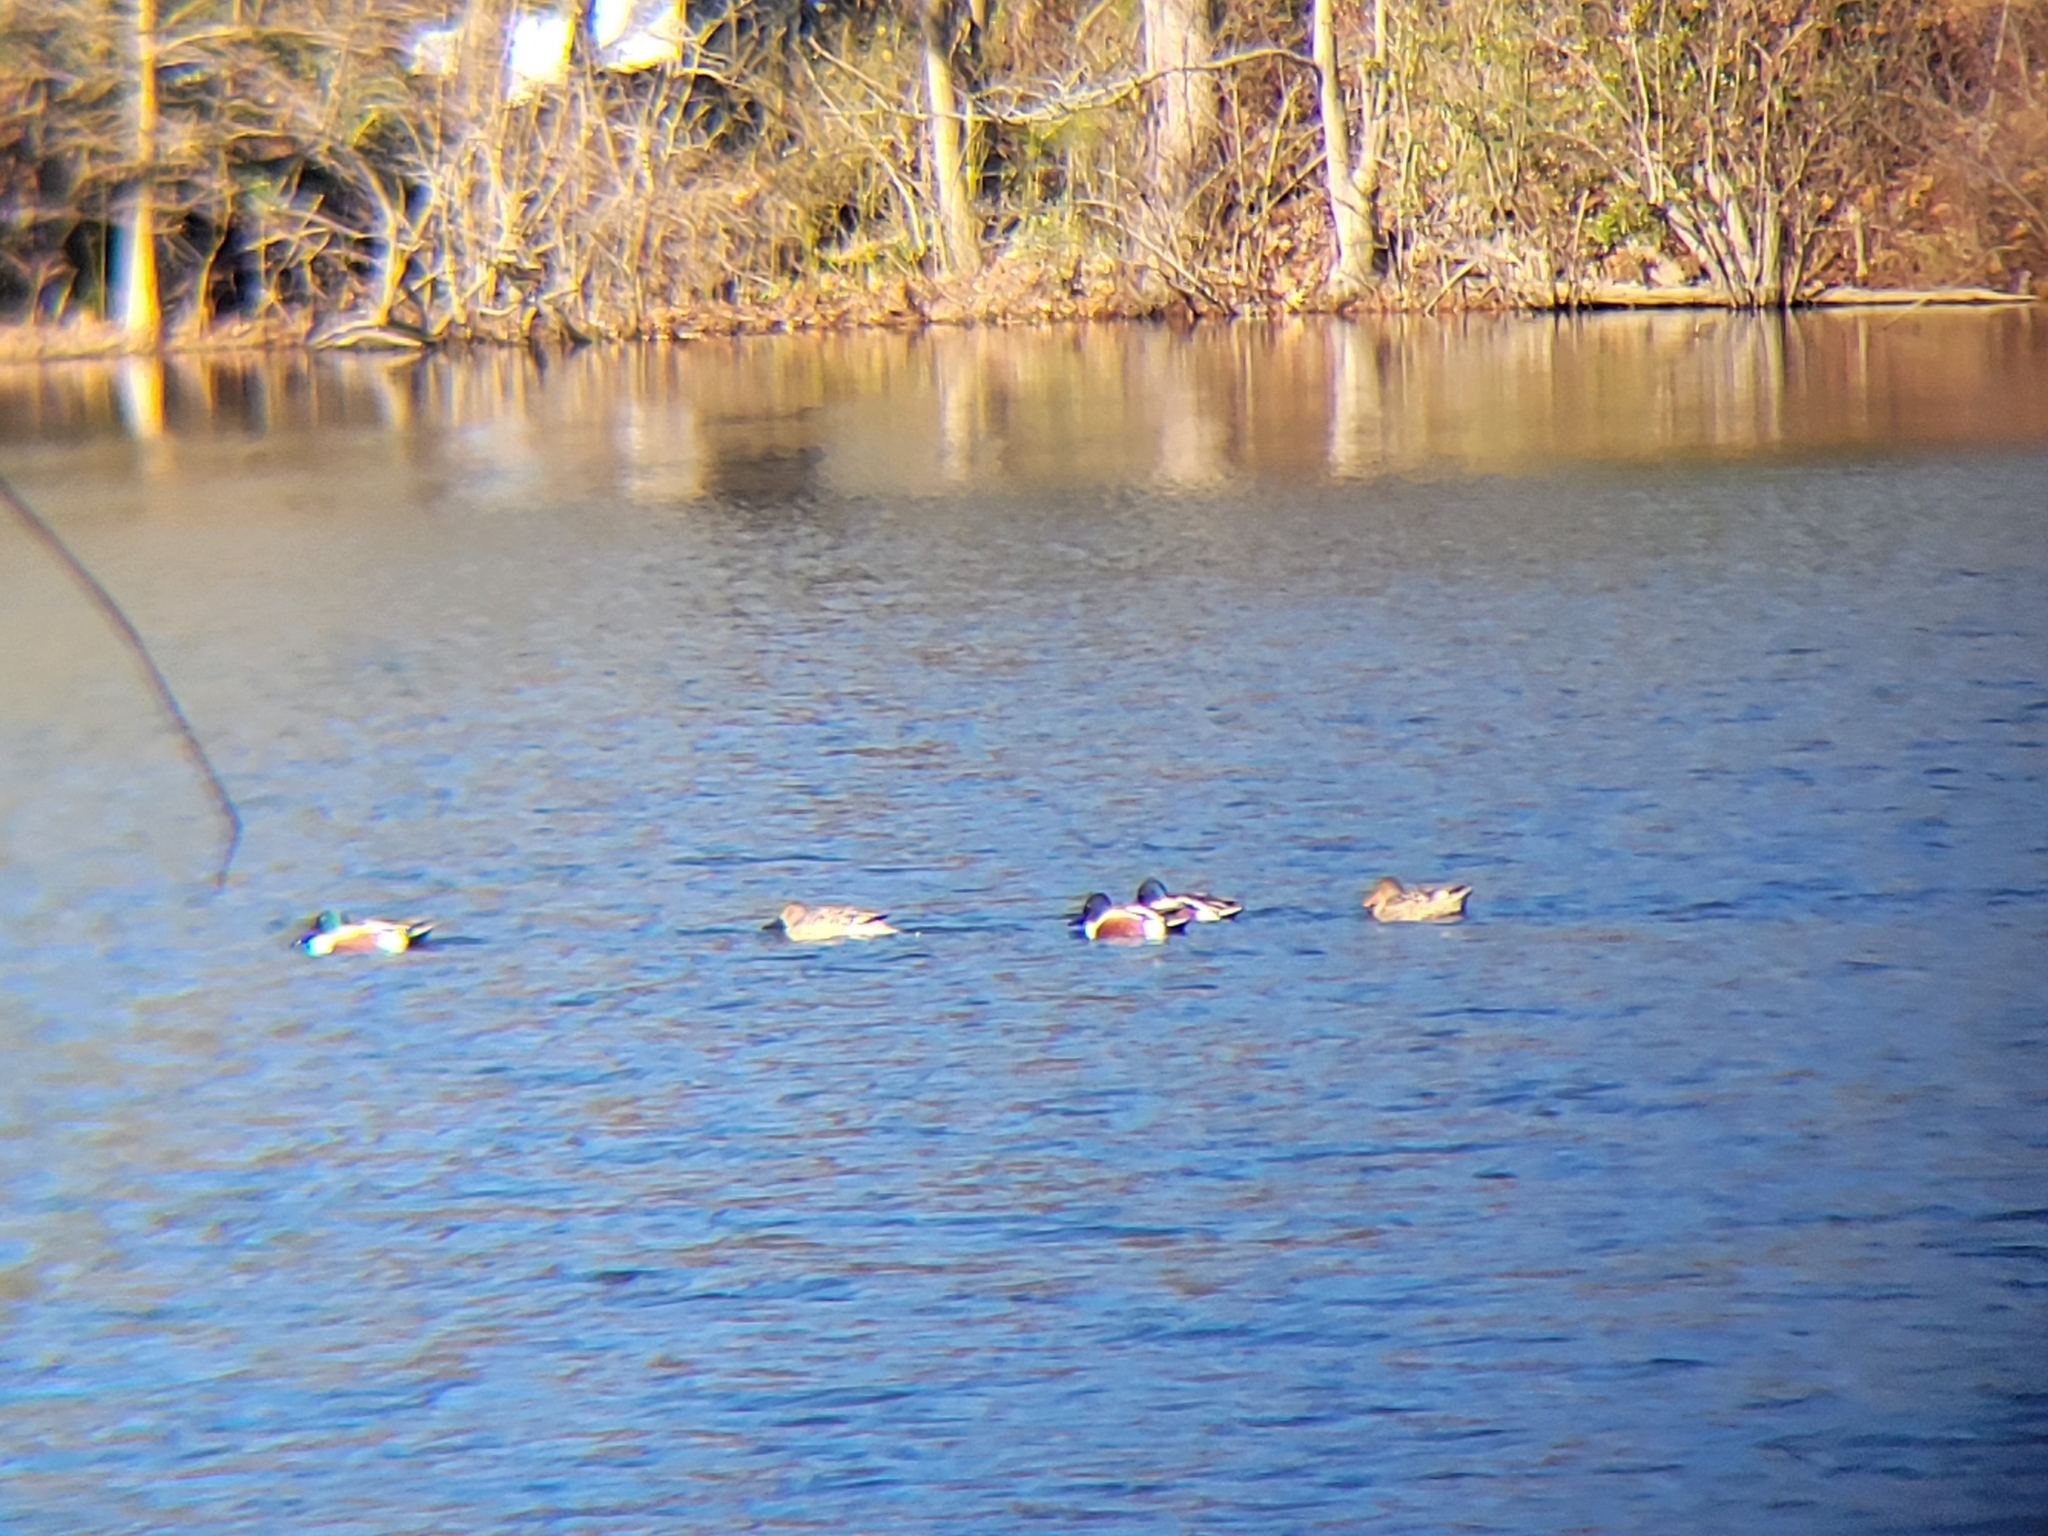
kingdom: Animalia
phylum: Chordata
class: Aves
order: Anseriformes
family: Anatidae
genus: Spatula
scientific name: Spatula clypeata
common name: Northern shoveler
